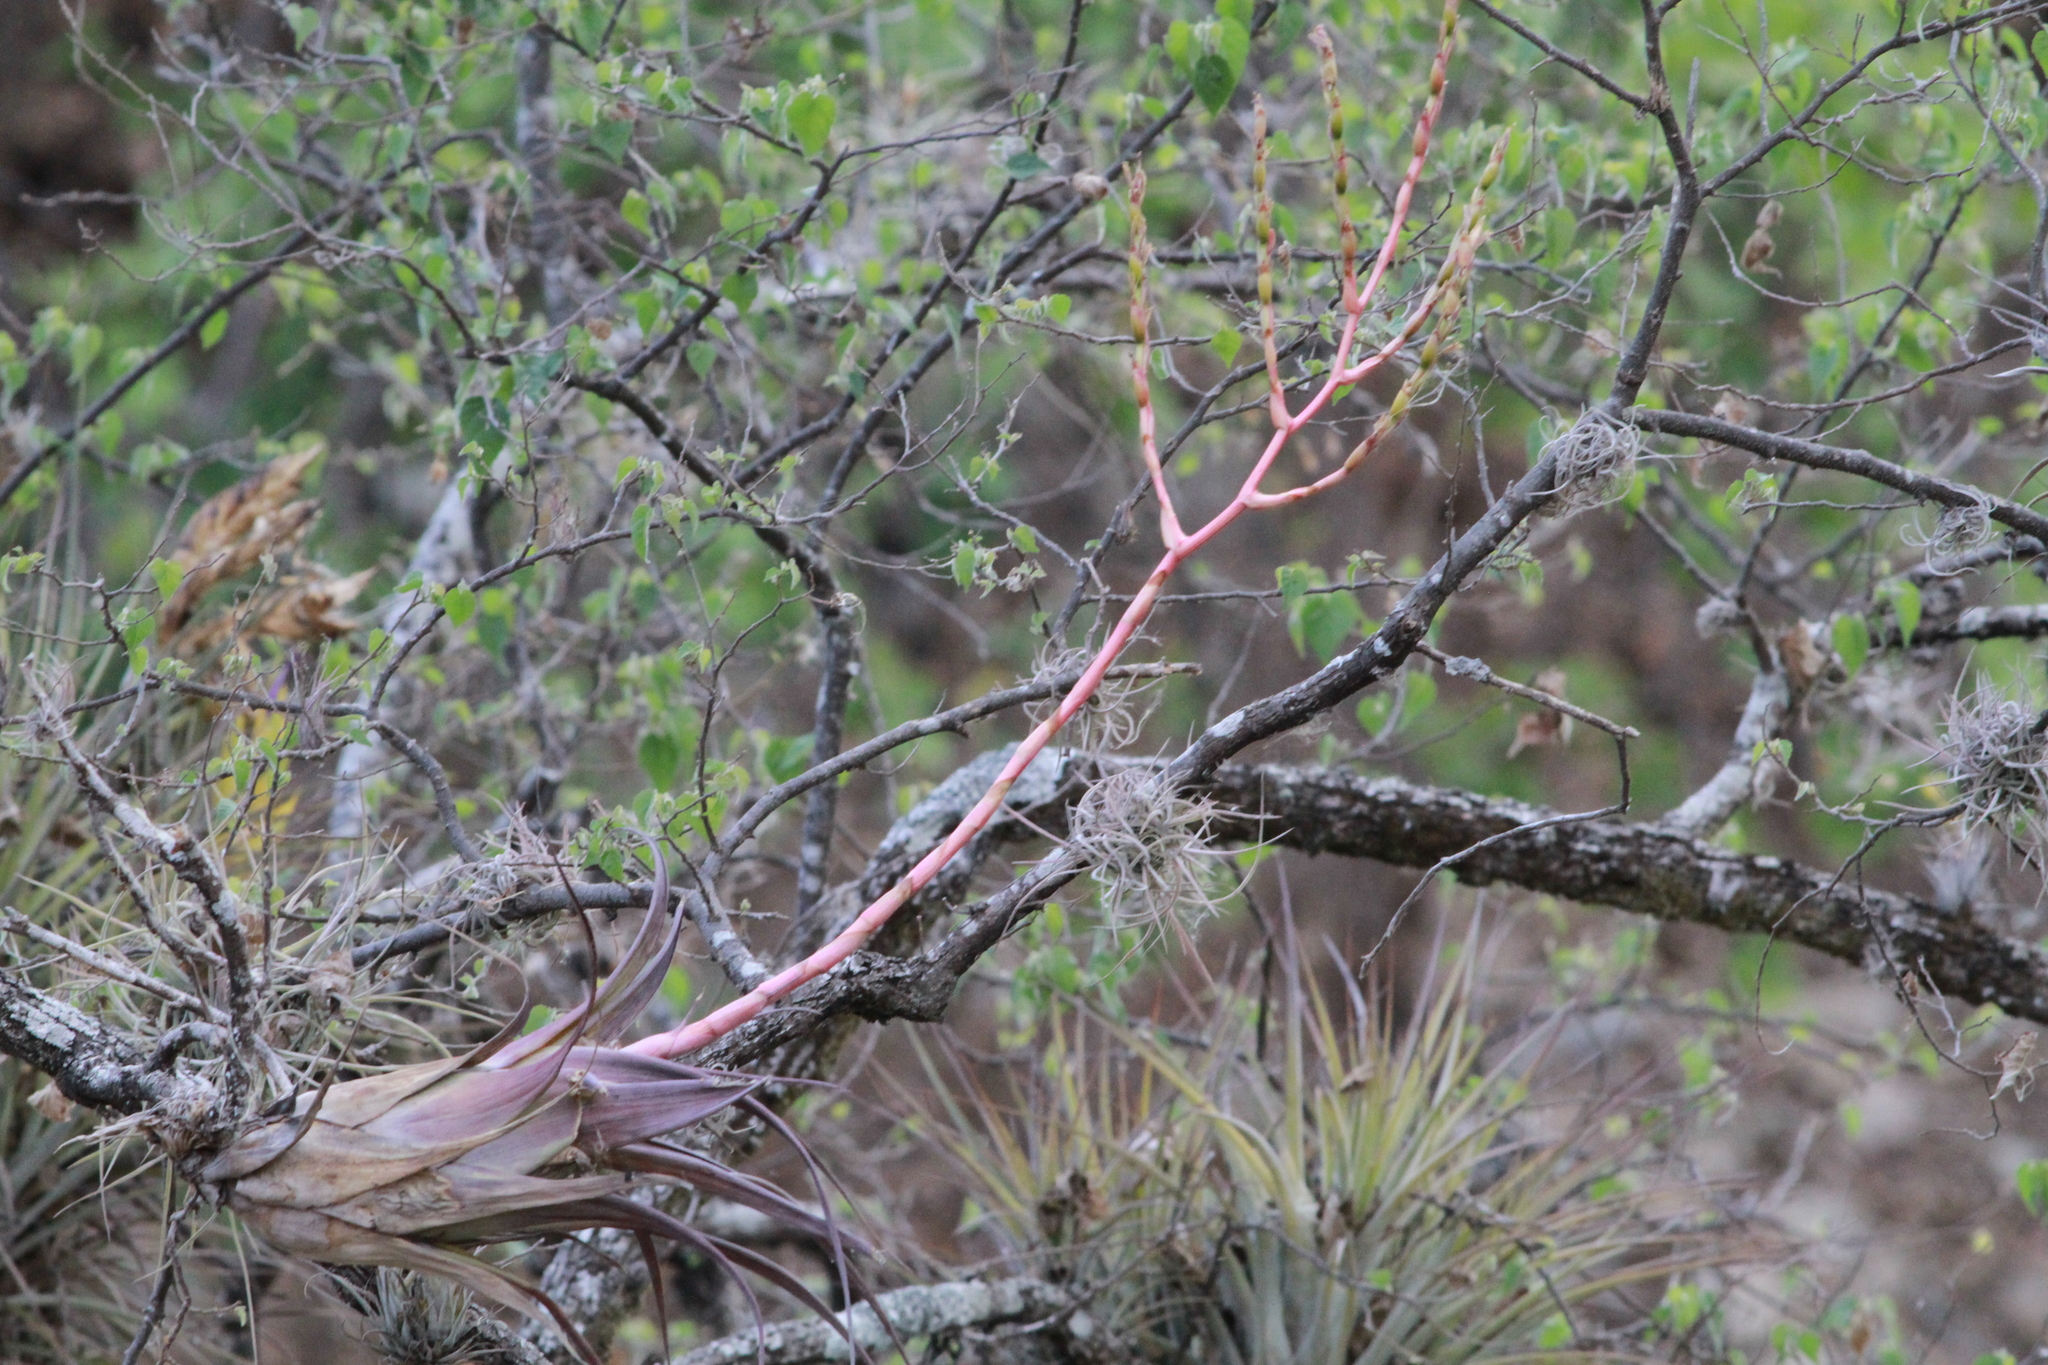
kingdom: Plantae
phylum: Tracheophyta
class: Liliopsida
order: Poales
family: Bromeliaceae
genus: Tillandsia
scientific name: Tillandsia tehuacana
